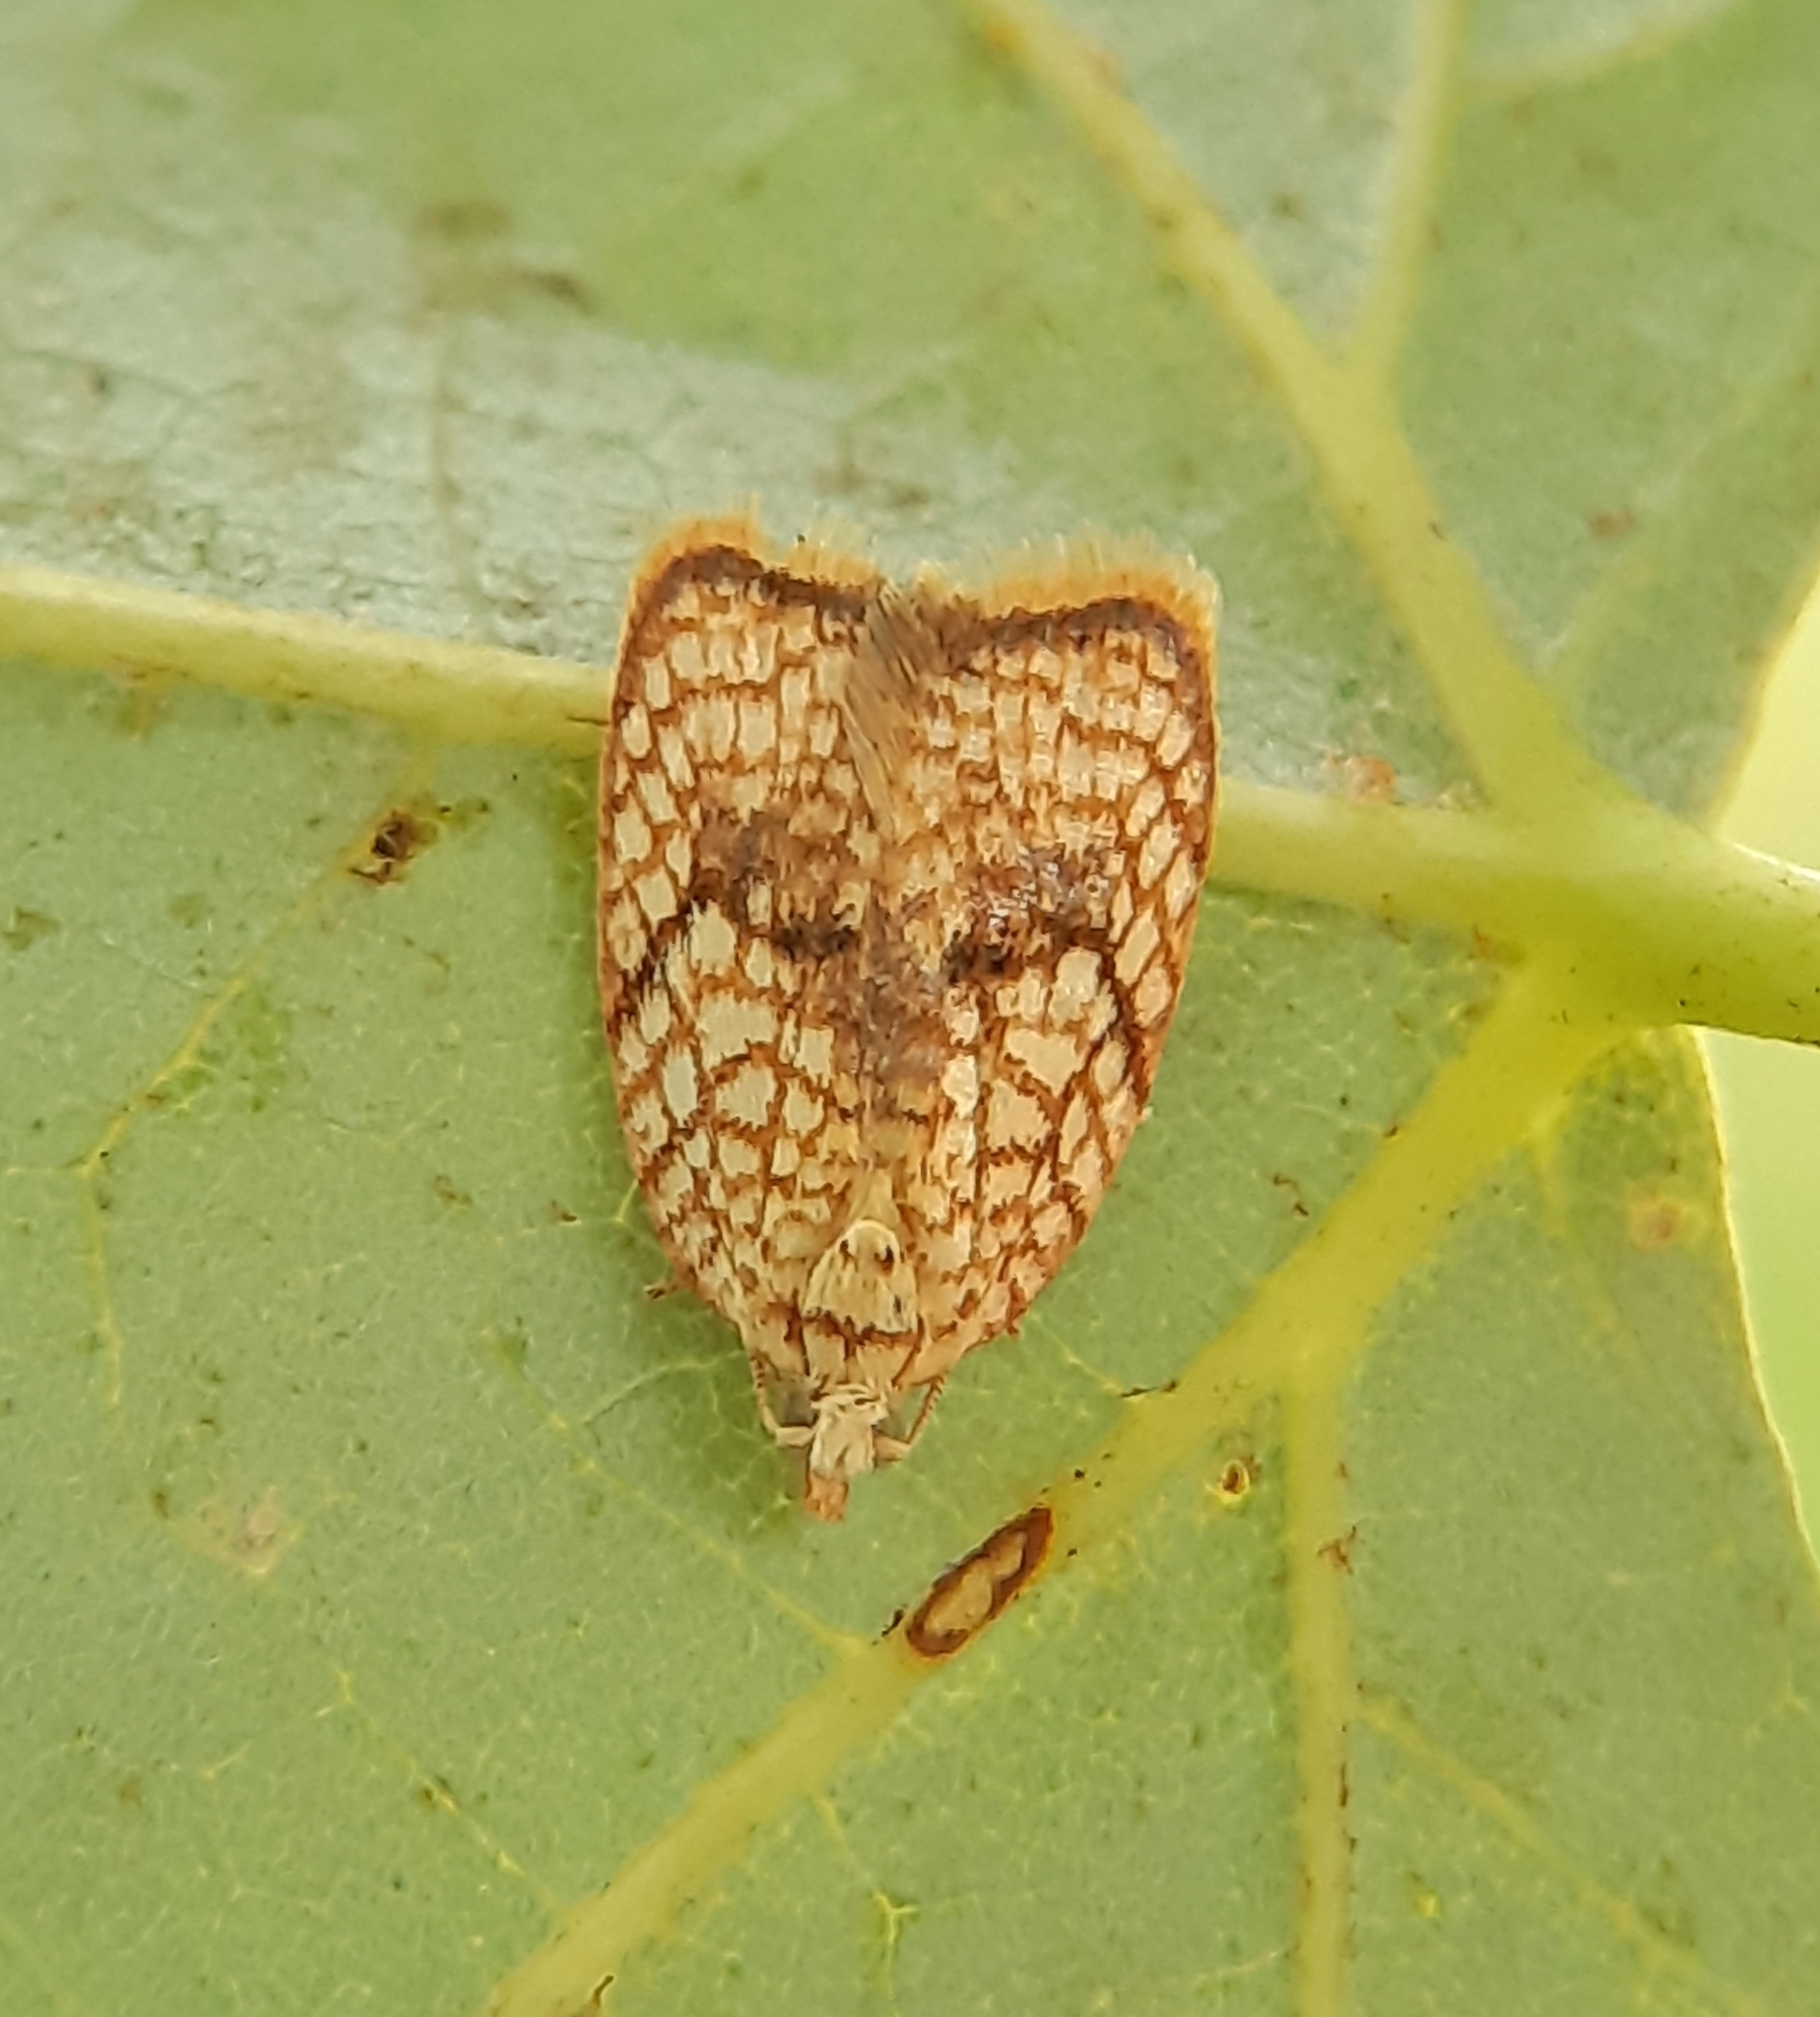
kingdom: Animalia
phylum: Arthropoda
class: Insecta
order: Lepidoptera
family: Tortricidae
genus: Acleris
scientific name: Acleris forsskaleana
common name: Maple button
